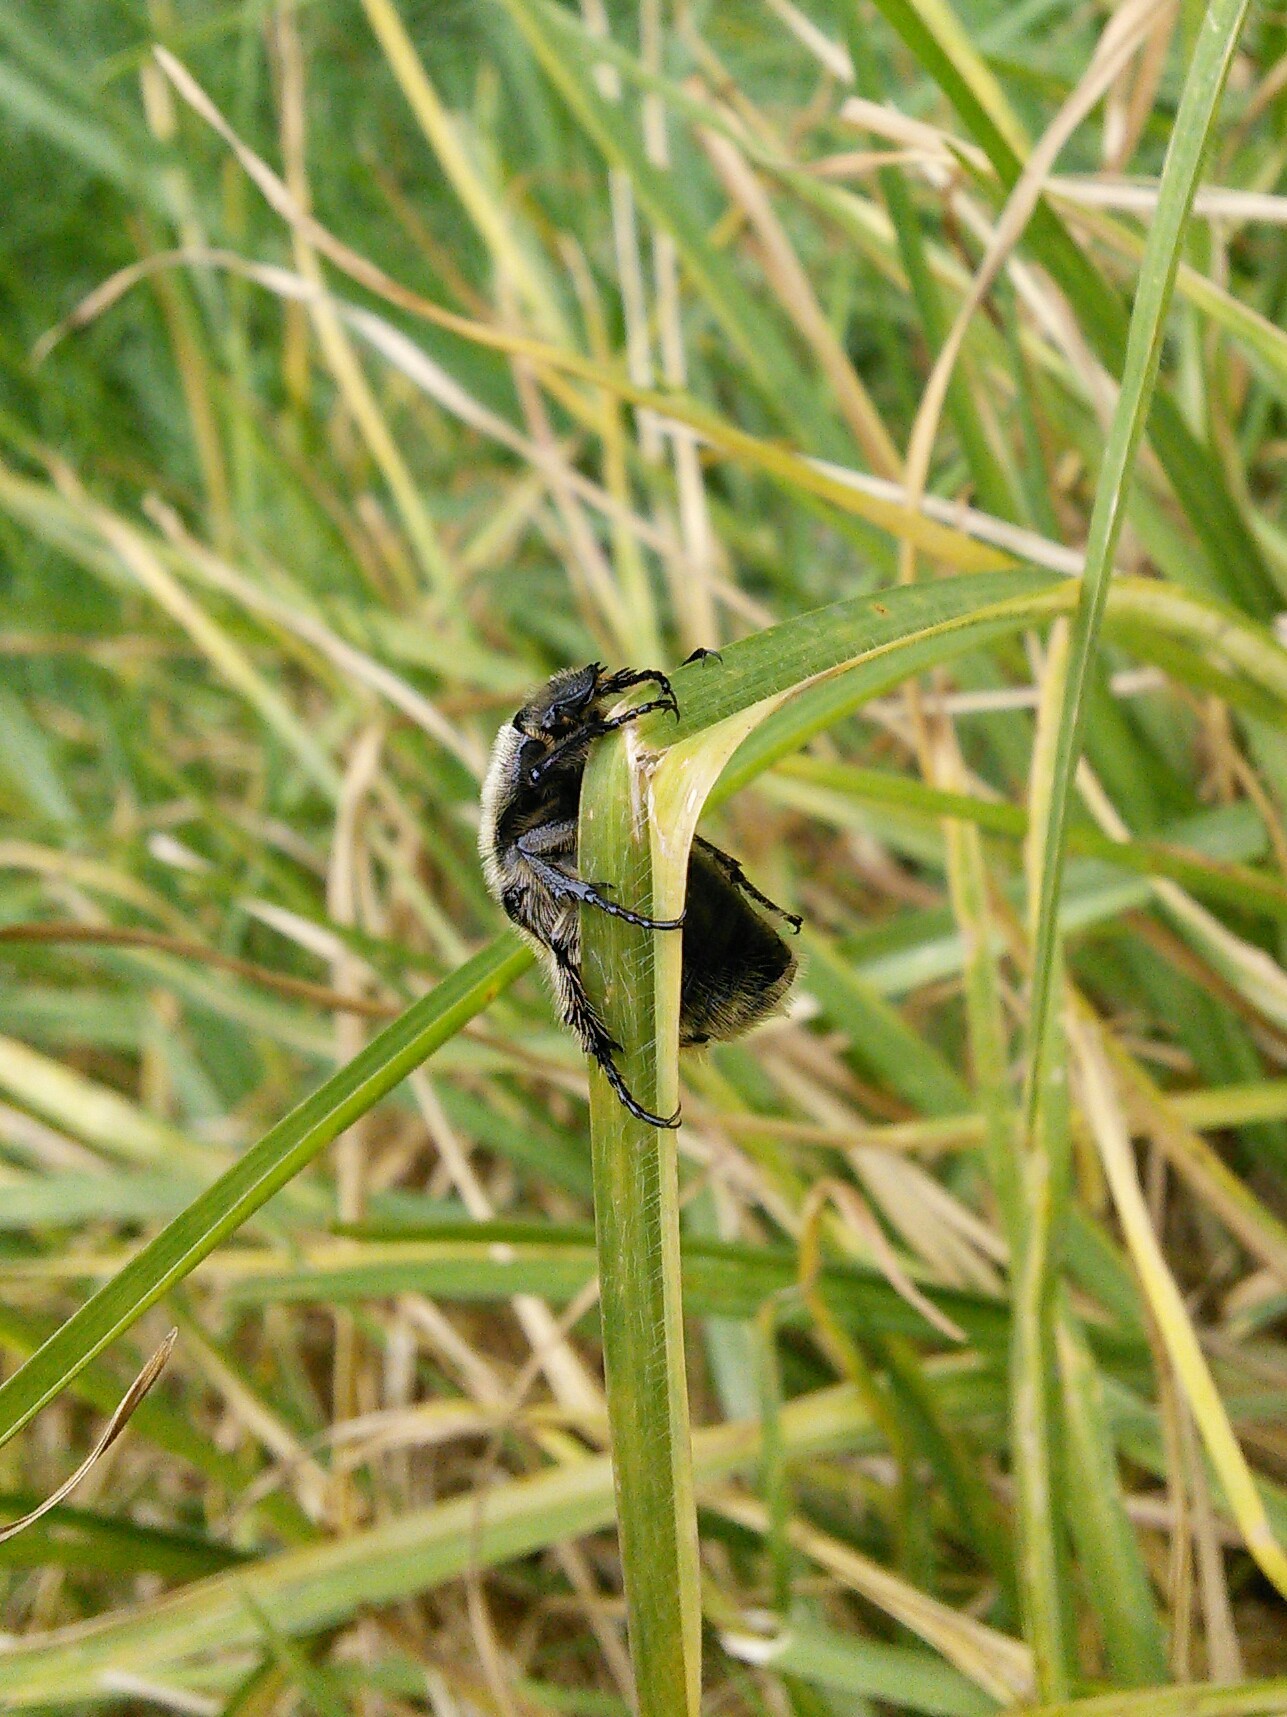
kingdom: Animalia
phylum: Arthropoda
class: Insecta
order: Coleoptera
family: Scarabaeidae
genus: Euphoria
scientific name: Euphoria basalis
